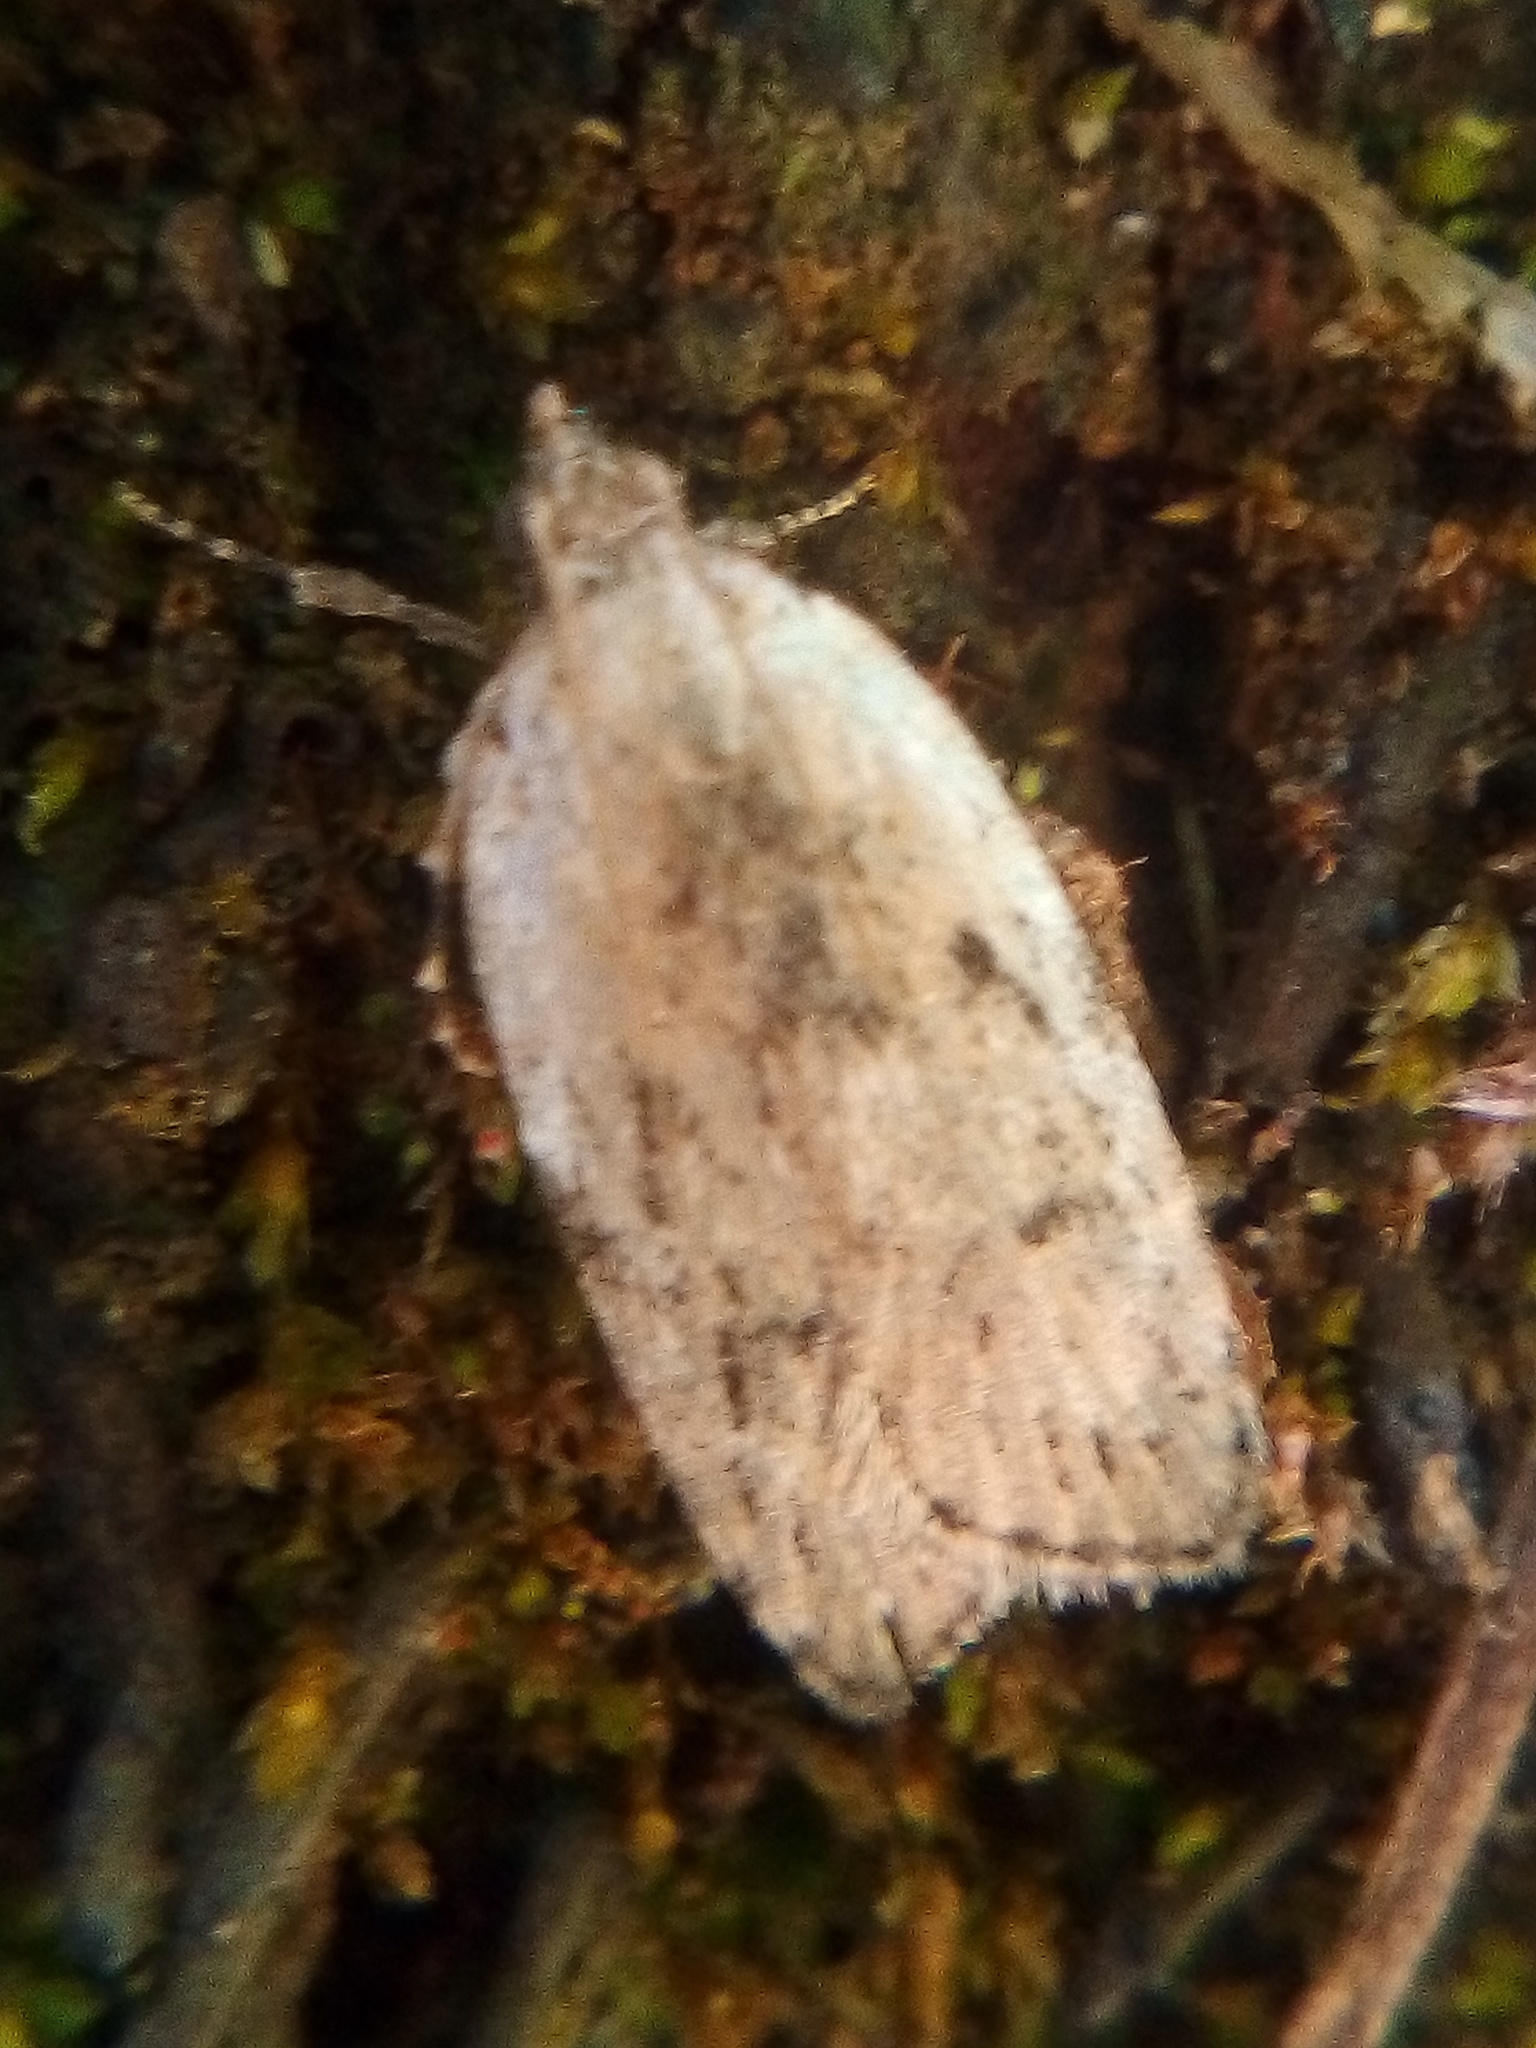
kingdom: Animalia
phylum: Arthropoda
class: Insecta
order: Lepidoptera
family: Depressariidae
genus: Phaeosaces
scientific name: Phaeosaces compsotypa
